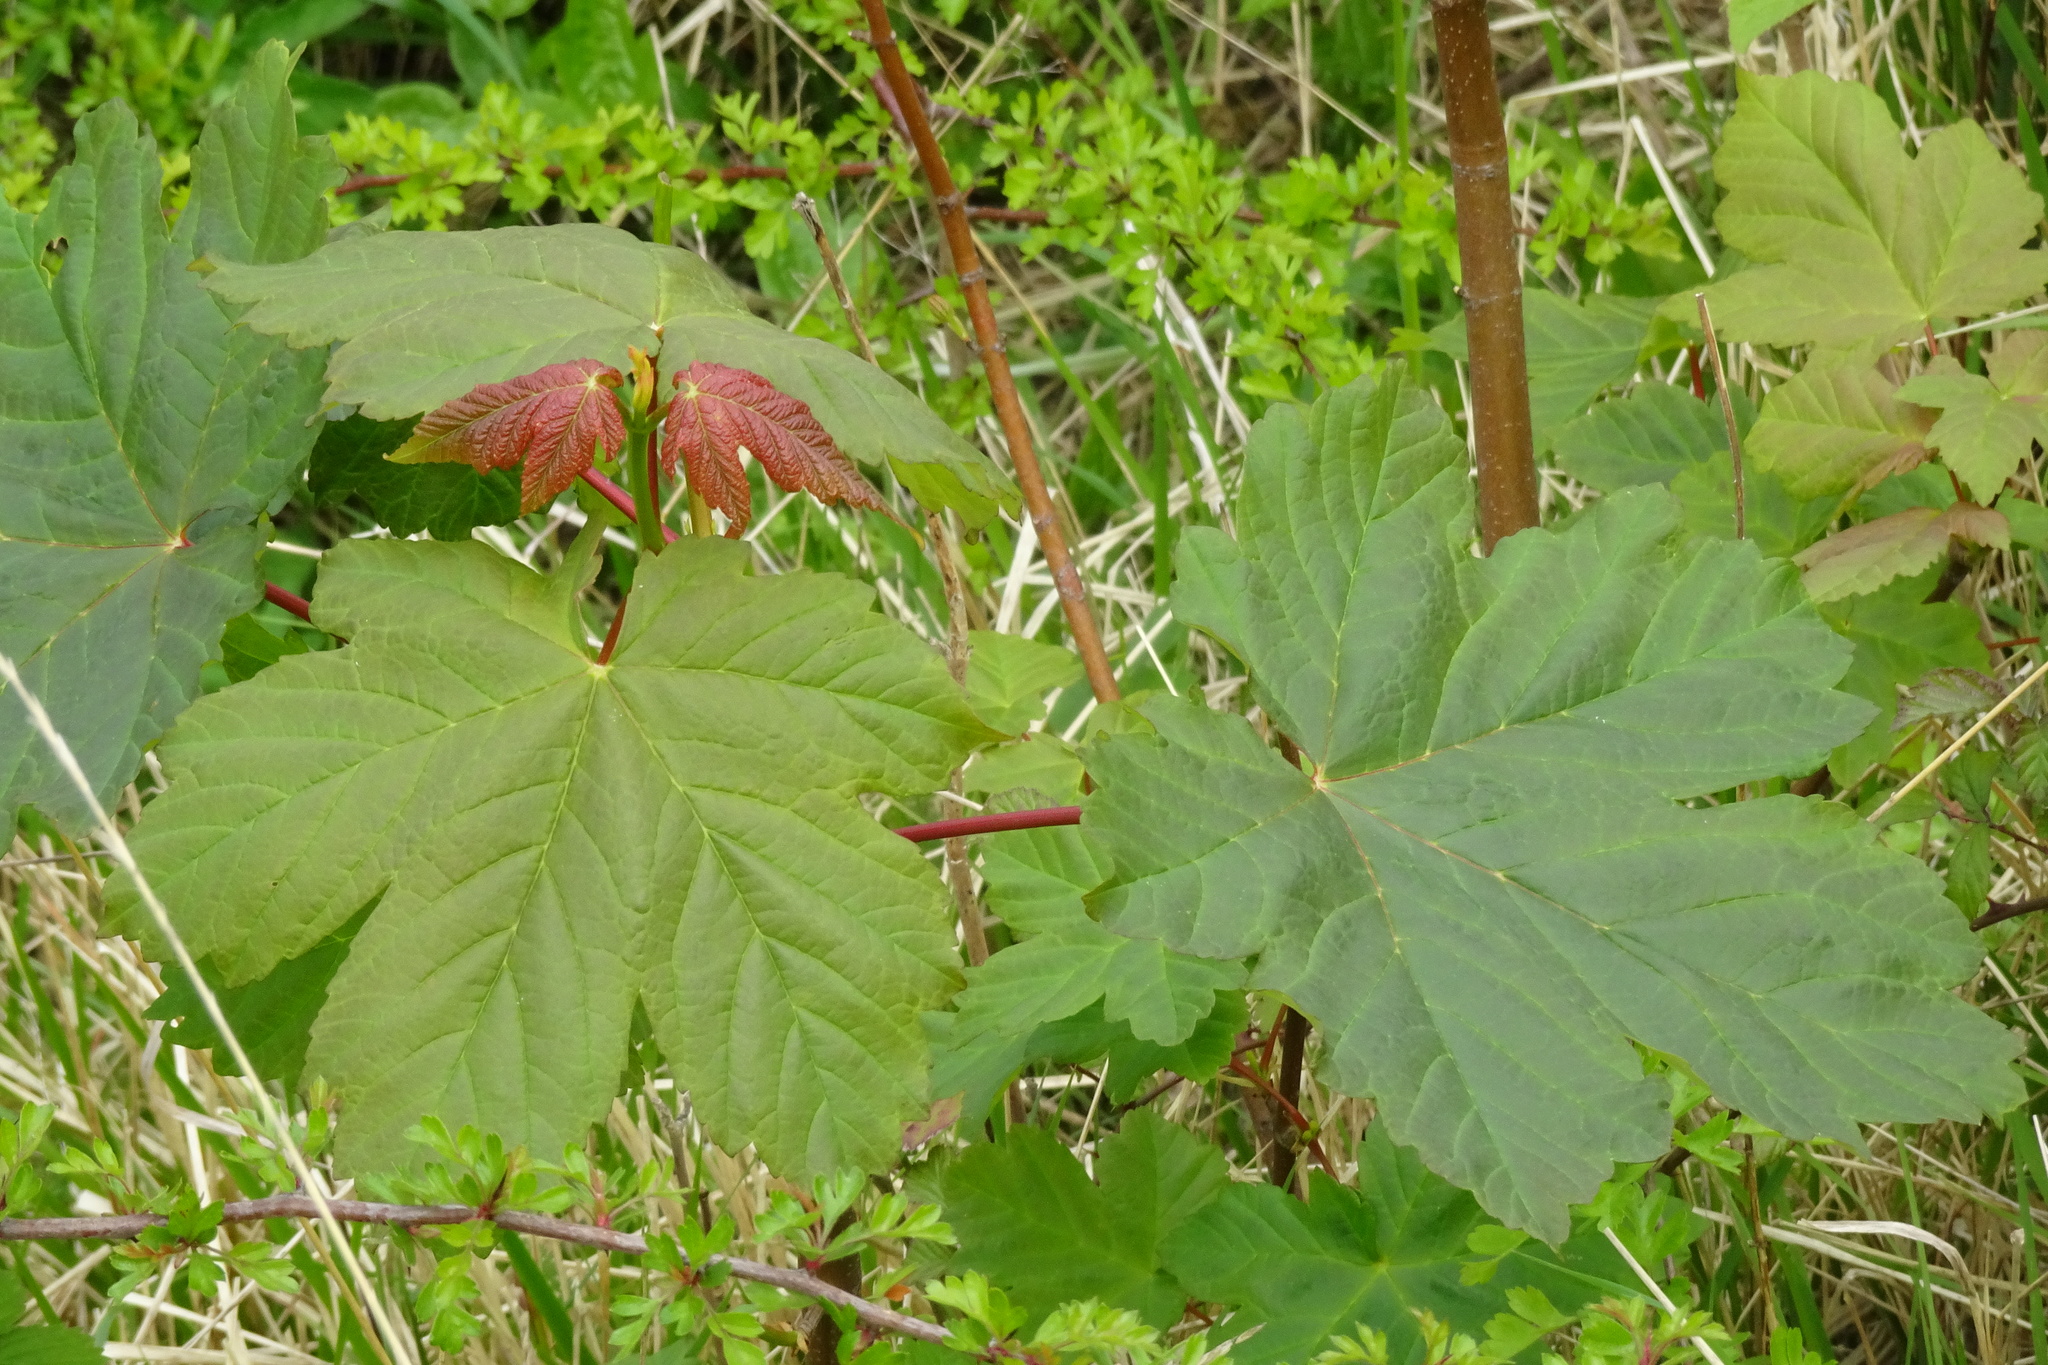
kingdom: Plantae
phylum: Tracheophyta
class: Magnoliopsida
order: Sapindales
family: Sapindaceae
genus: Acer
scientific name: Acer pseudoplatanus
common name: Sycamore
